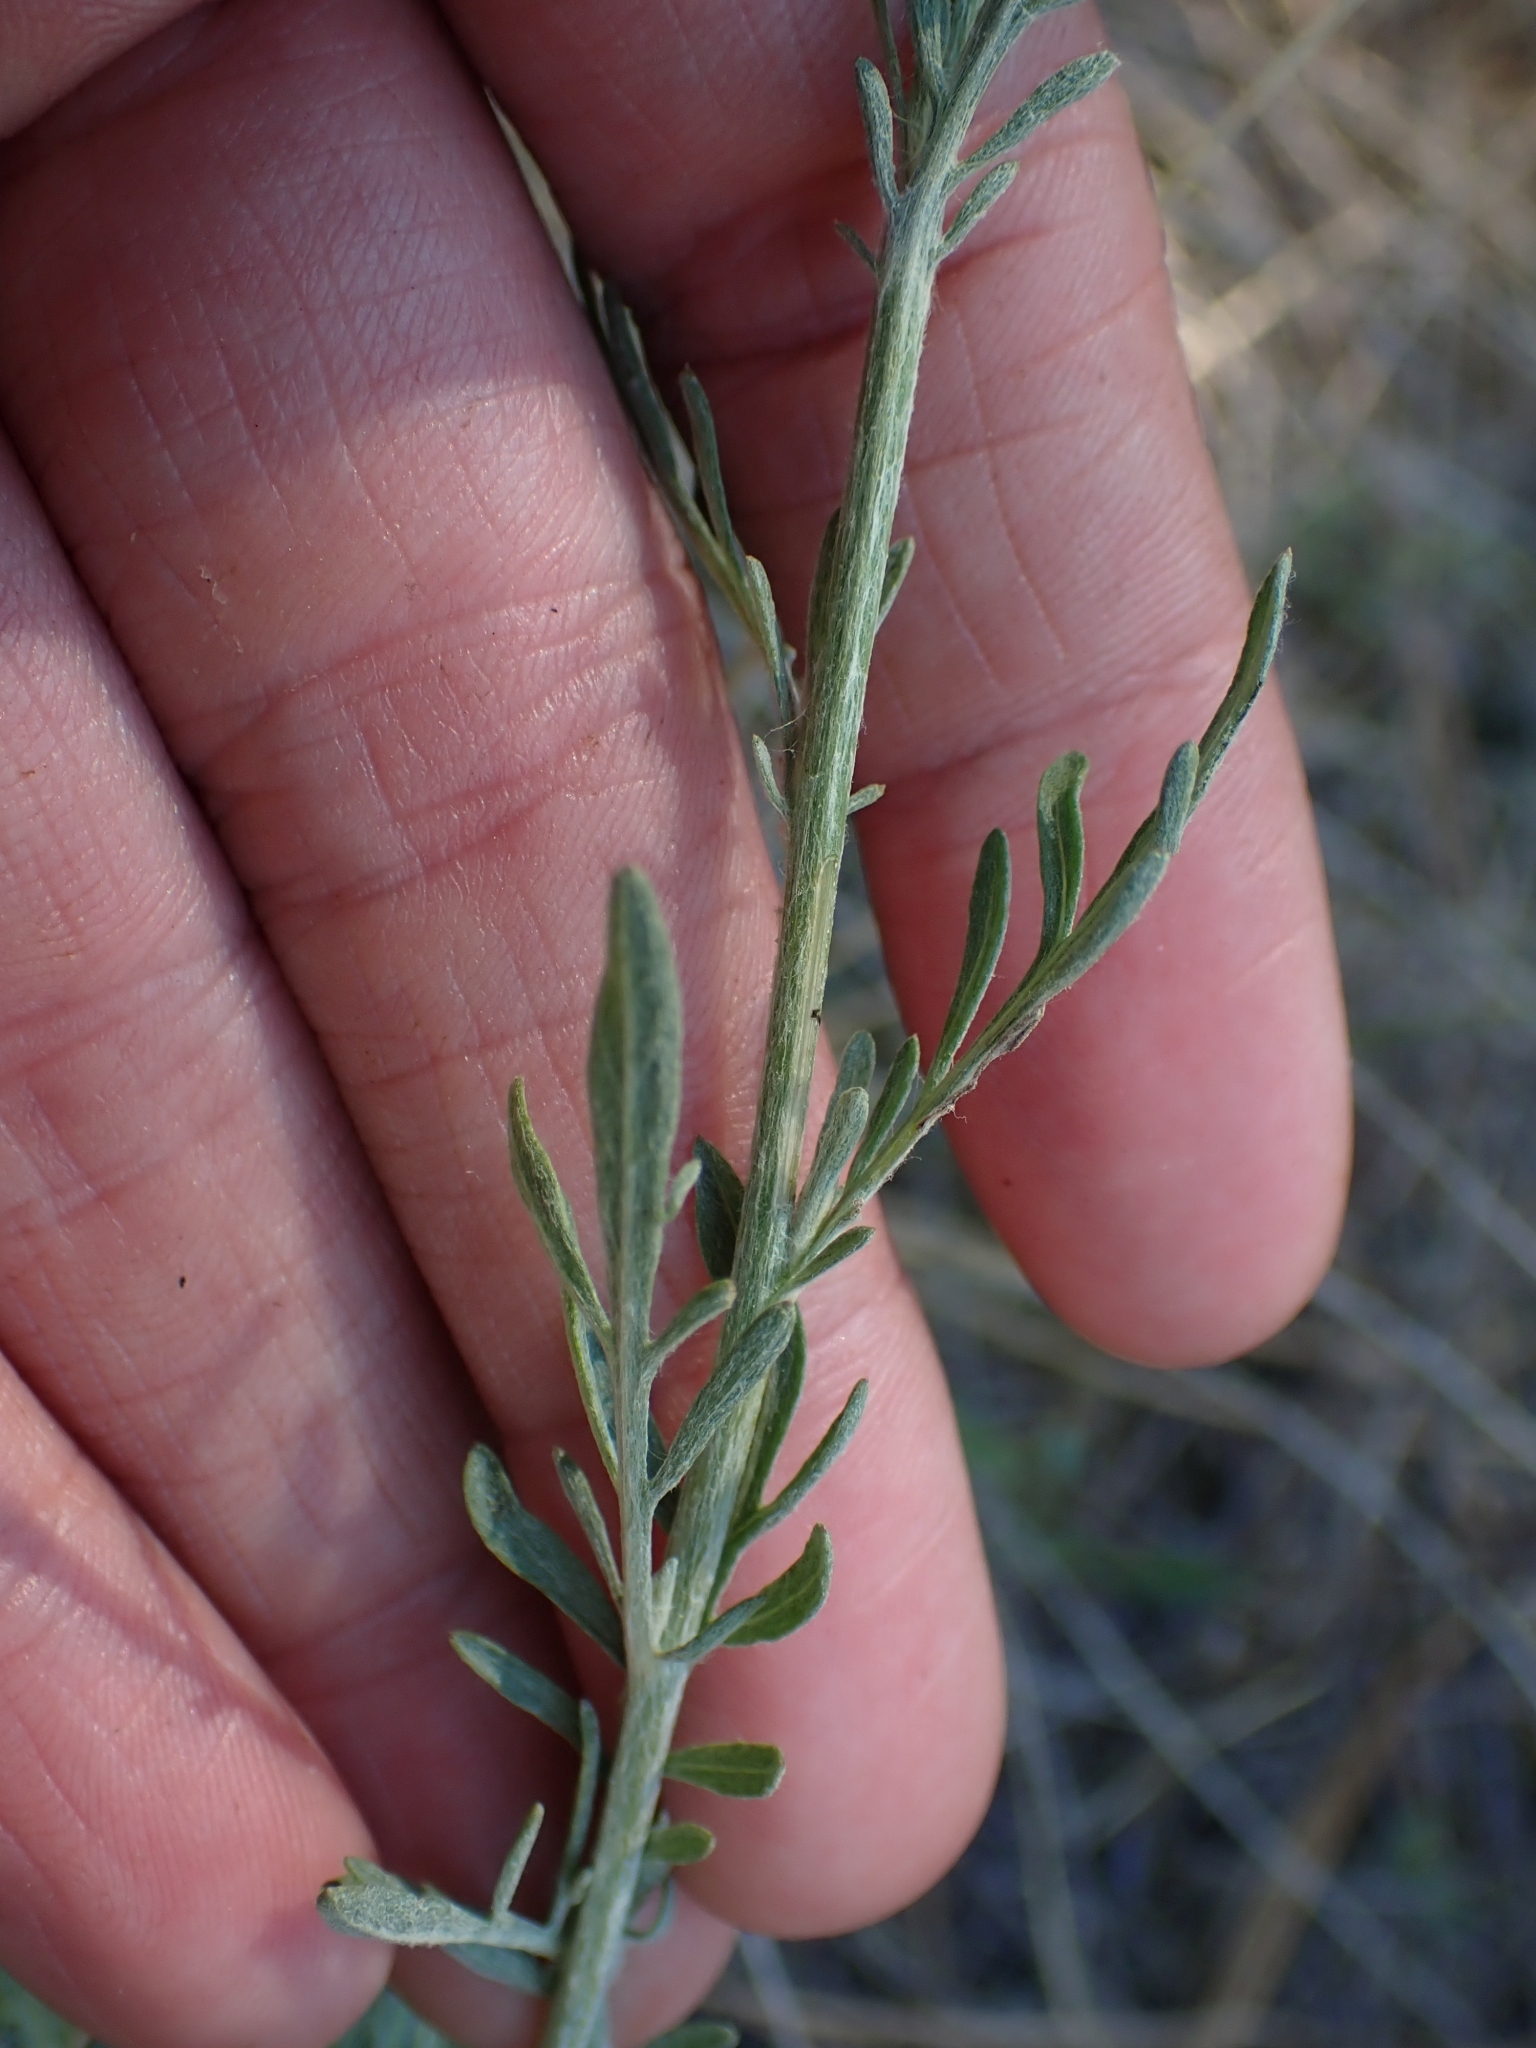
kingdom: Plantae
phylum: Tracheophyta
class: Magnoliopsida
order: Asterales
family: Asteraceae
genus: Centaurea
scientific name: Centaurea stoebe
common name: Spotted knapweed
